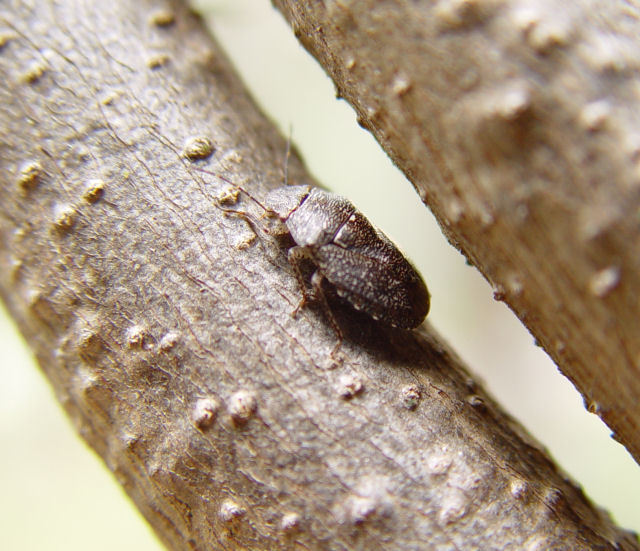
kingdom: Animalia
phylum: Arthropoda
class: Insecta
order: Hemiptera
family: Pentatomidae
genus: Lineostethus
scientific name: Lineostethus
